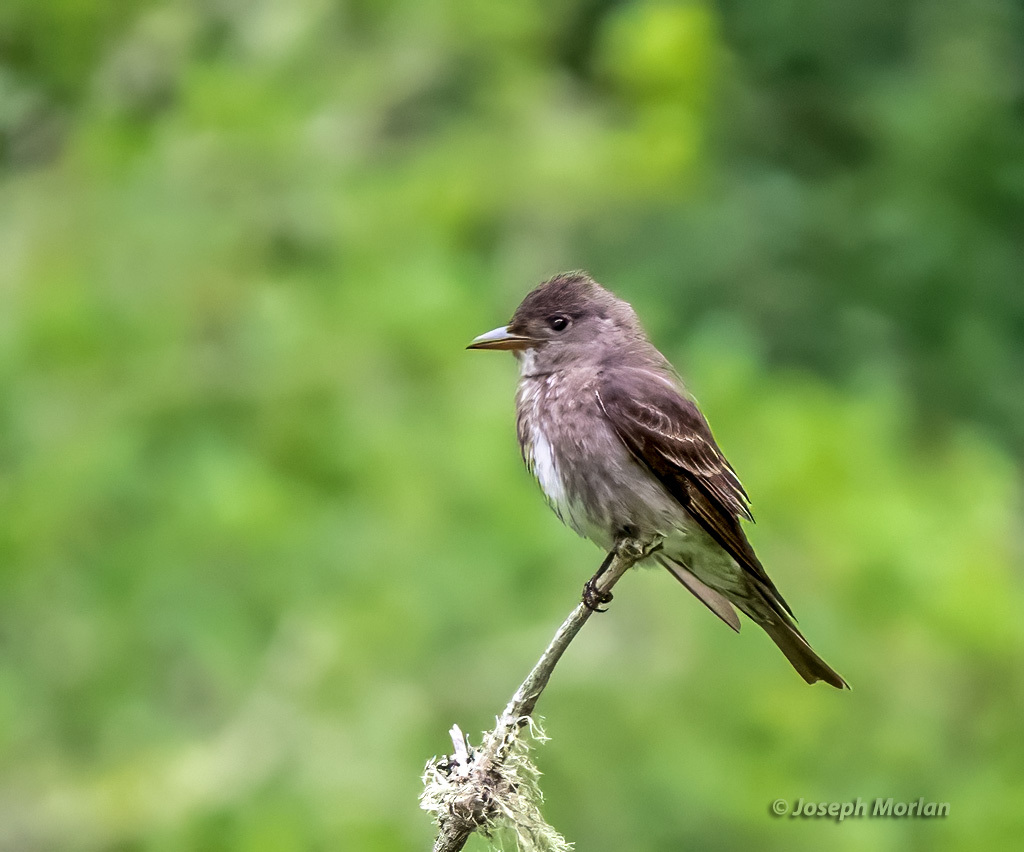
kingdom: Animalia
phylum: Chordata
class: Aves
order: Passeriformes
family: Tyrannidae
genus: Contopus
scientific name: Contopus cooperi
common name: Olive-sided flycatcher
